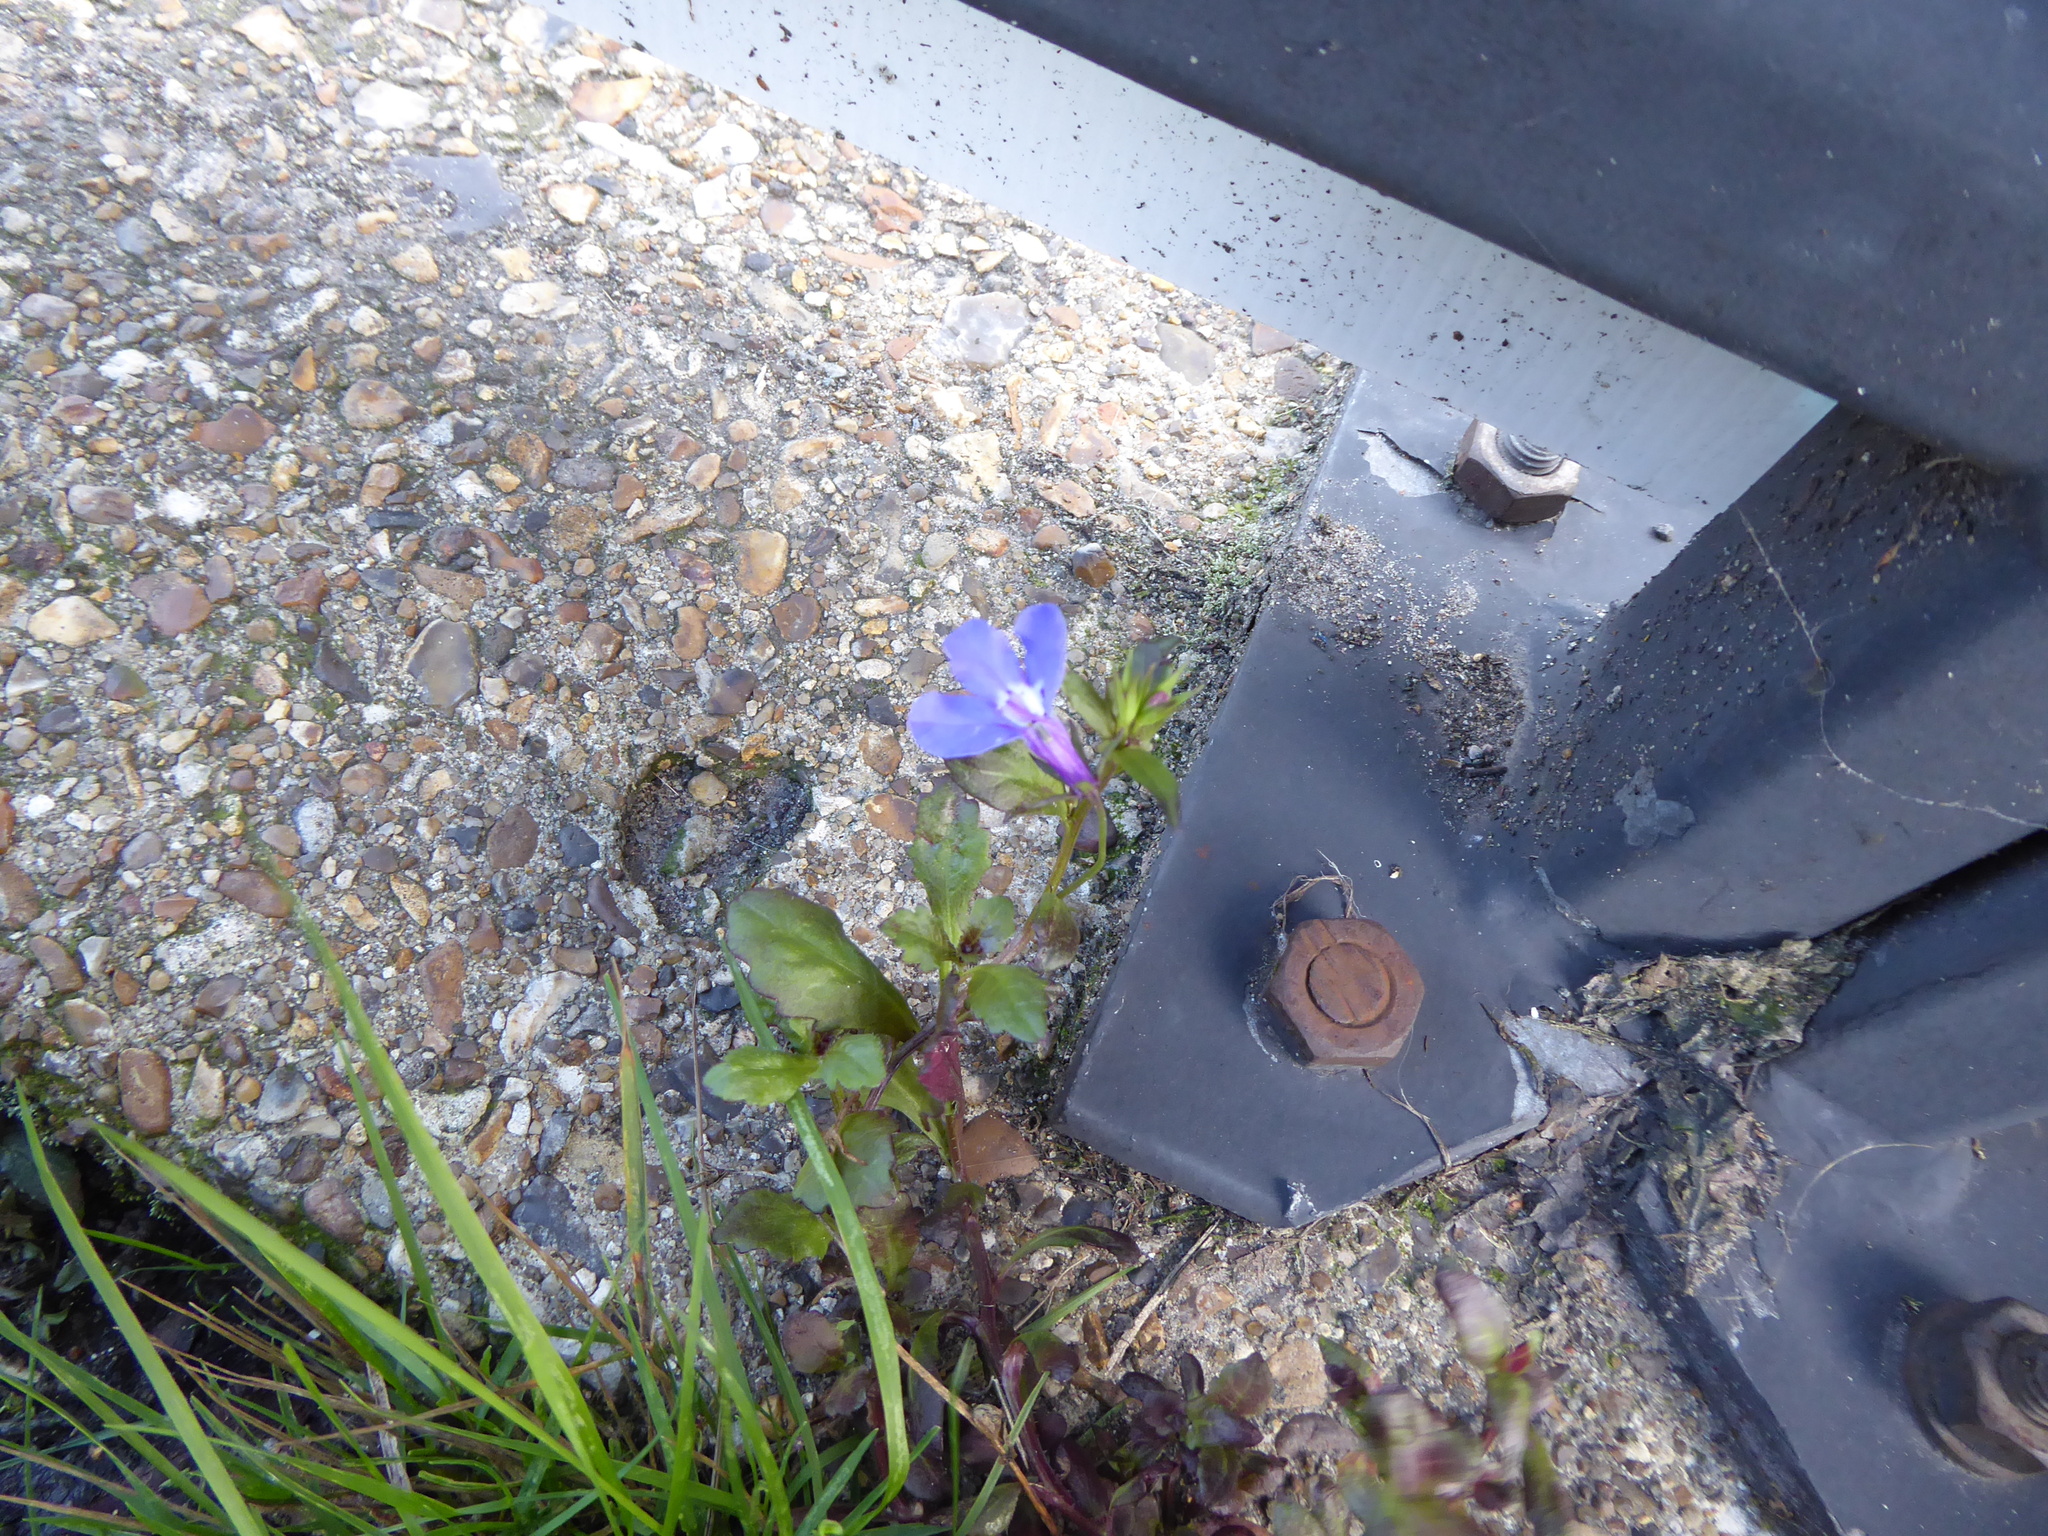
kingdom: Plantae
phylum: Tracheophyta
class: Magnoliopsida
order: Asterales
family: Campanulaceae
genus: Lobelia
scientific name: Lobelia erinus
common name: Edging lobelia
